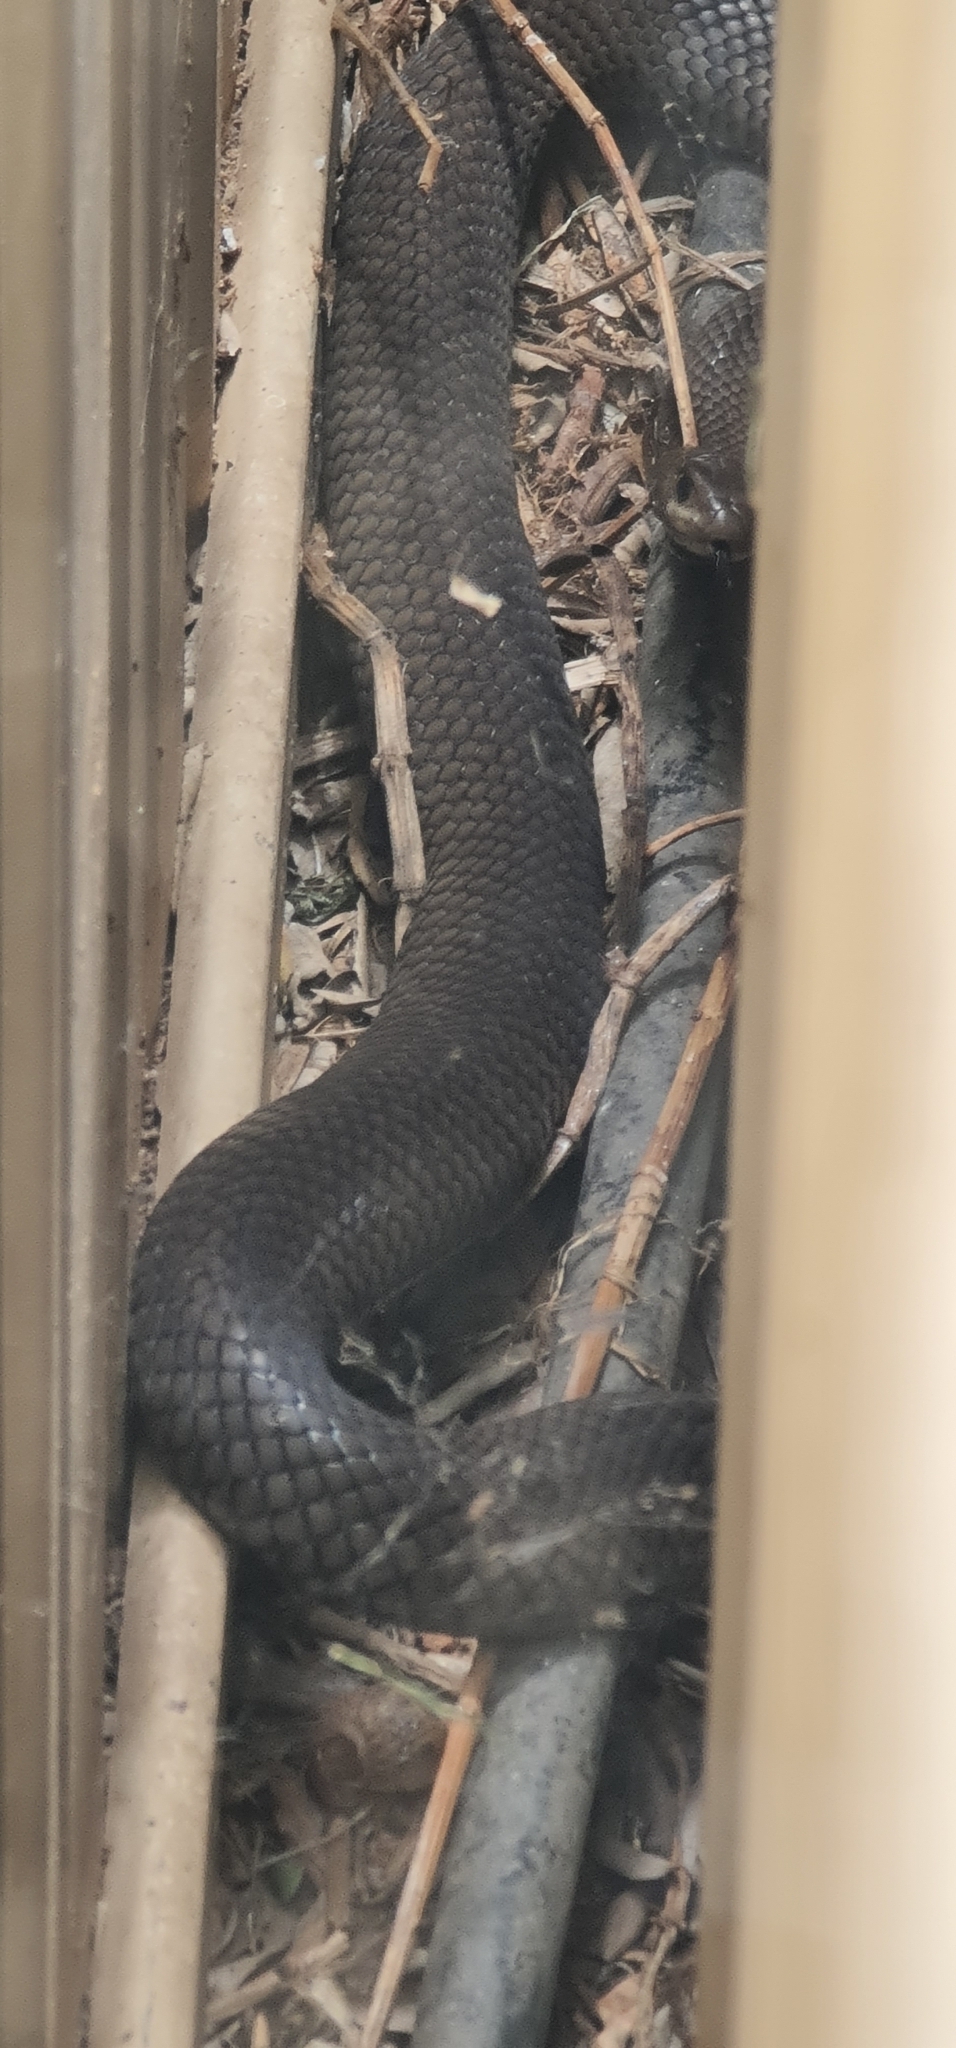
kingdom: Animalia
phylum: Chordata
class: Squamata
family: Elapidae
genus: Pseudonaja
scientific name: Pseudonaja textilis
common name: Eastern brown snake
